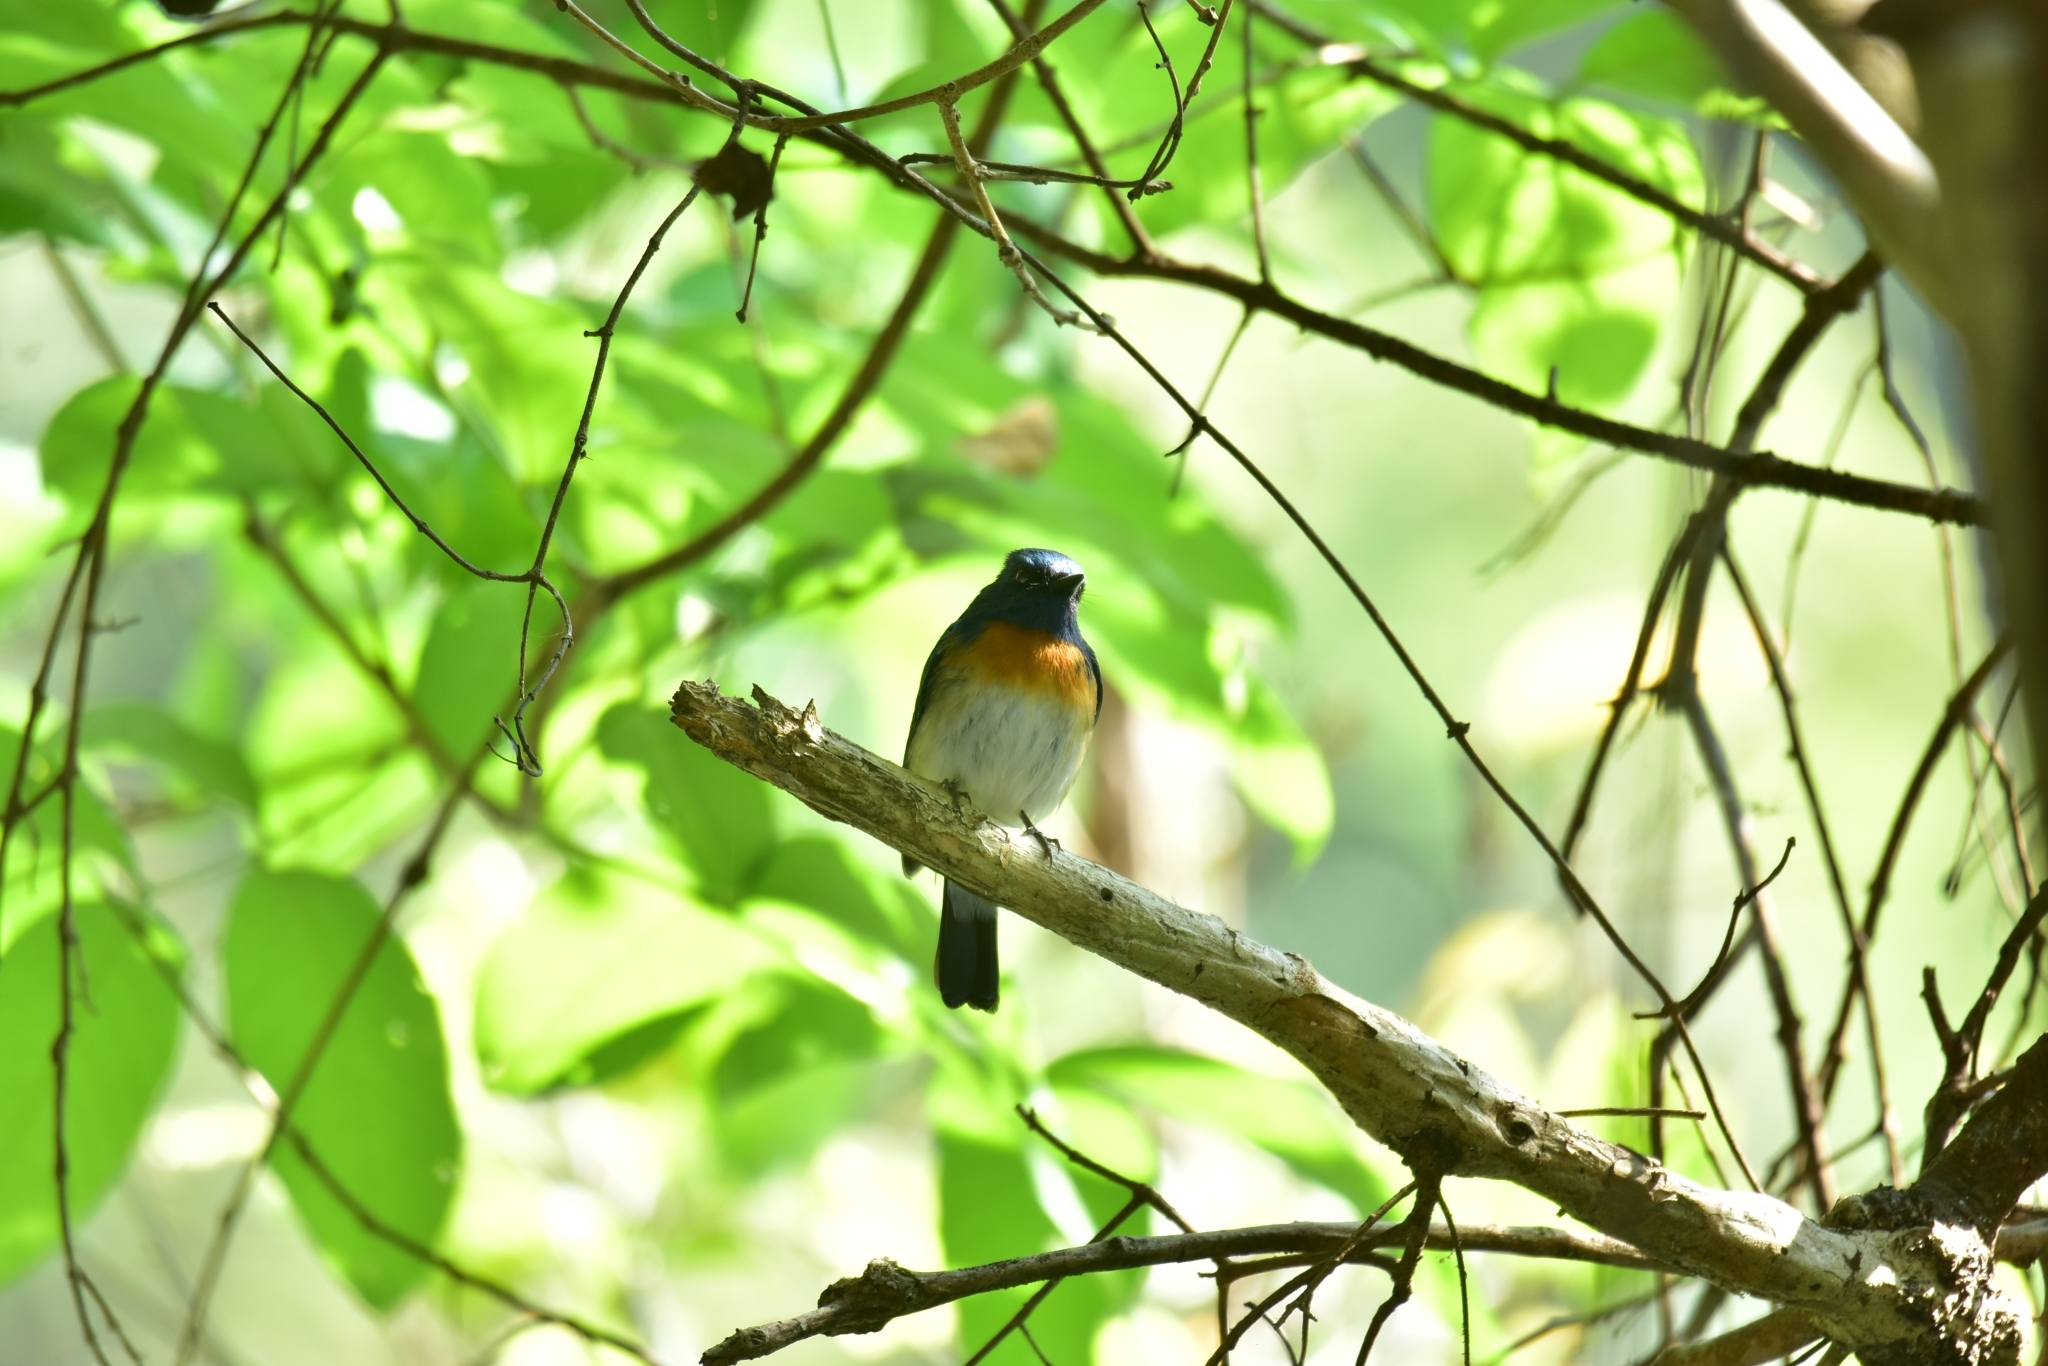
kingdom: Animalia
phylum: Chordata
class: Aves
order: Passeriformes
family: Muscicapidae
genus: Cyornis
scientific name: Cyornis rubeculoides
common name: Blue-throated blue flycatcher
